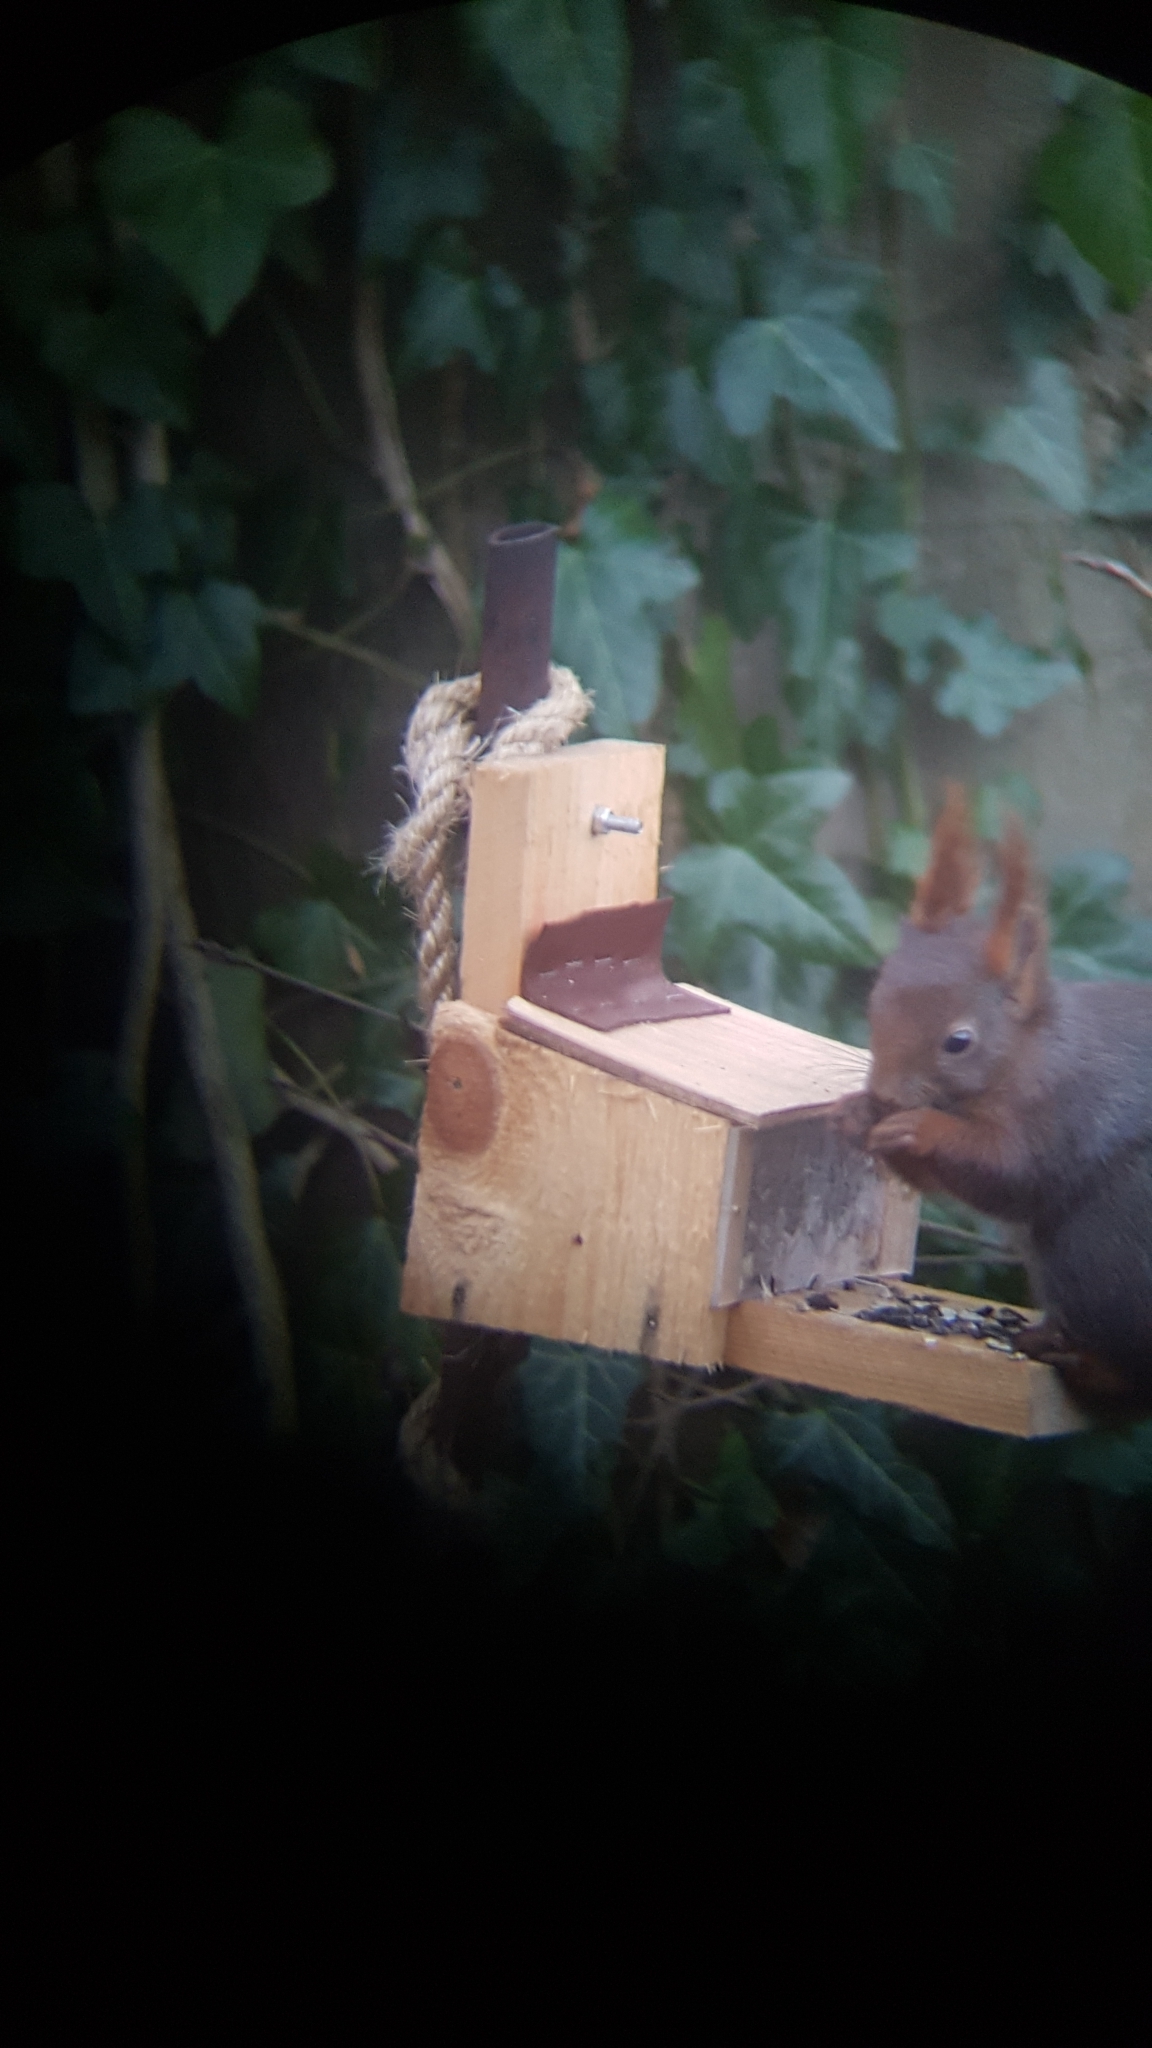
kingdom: Animalia
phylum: Chordata
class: Mammalia
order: Rodentia
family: Sciuridae
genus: Sciurus
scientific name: Sciurus vulgaris
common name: Eurasian red squirrel
